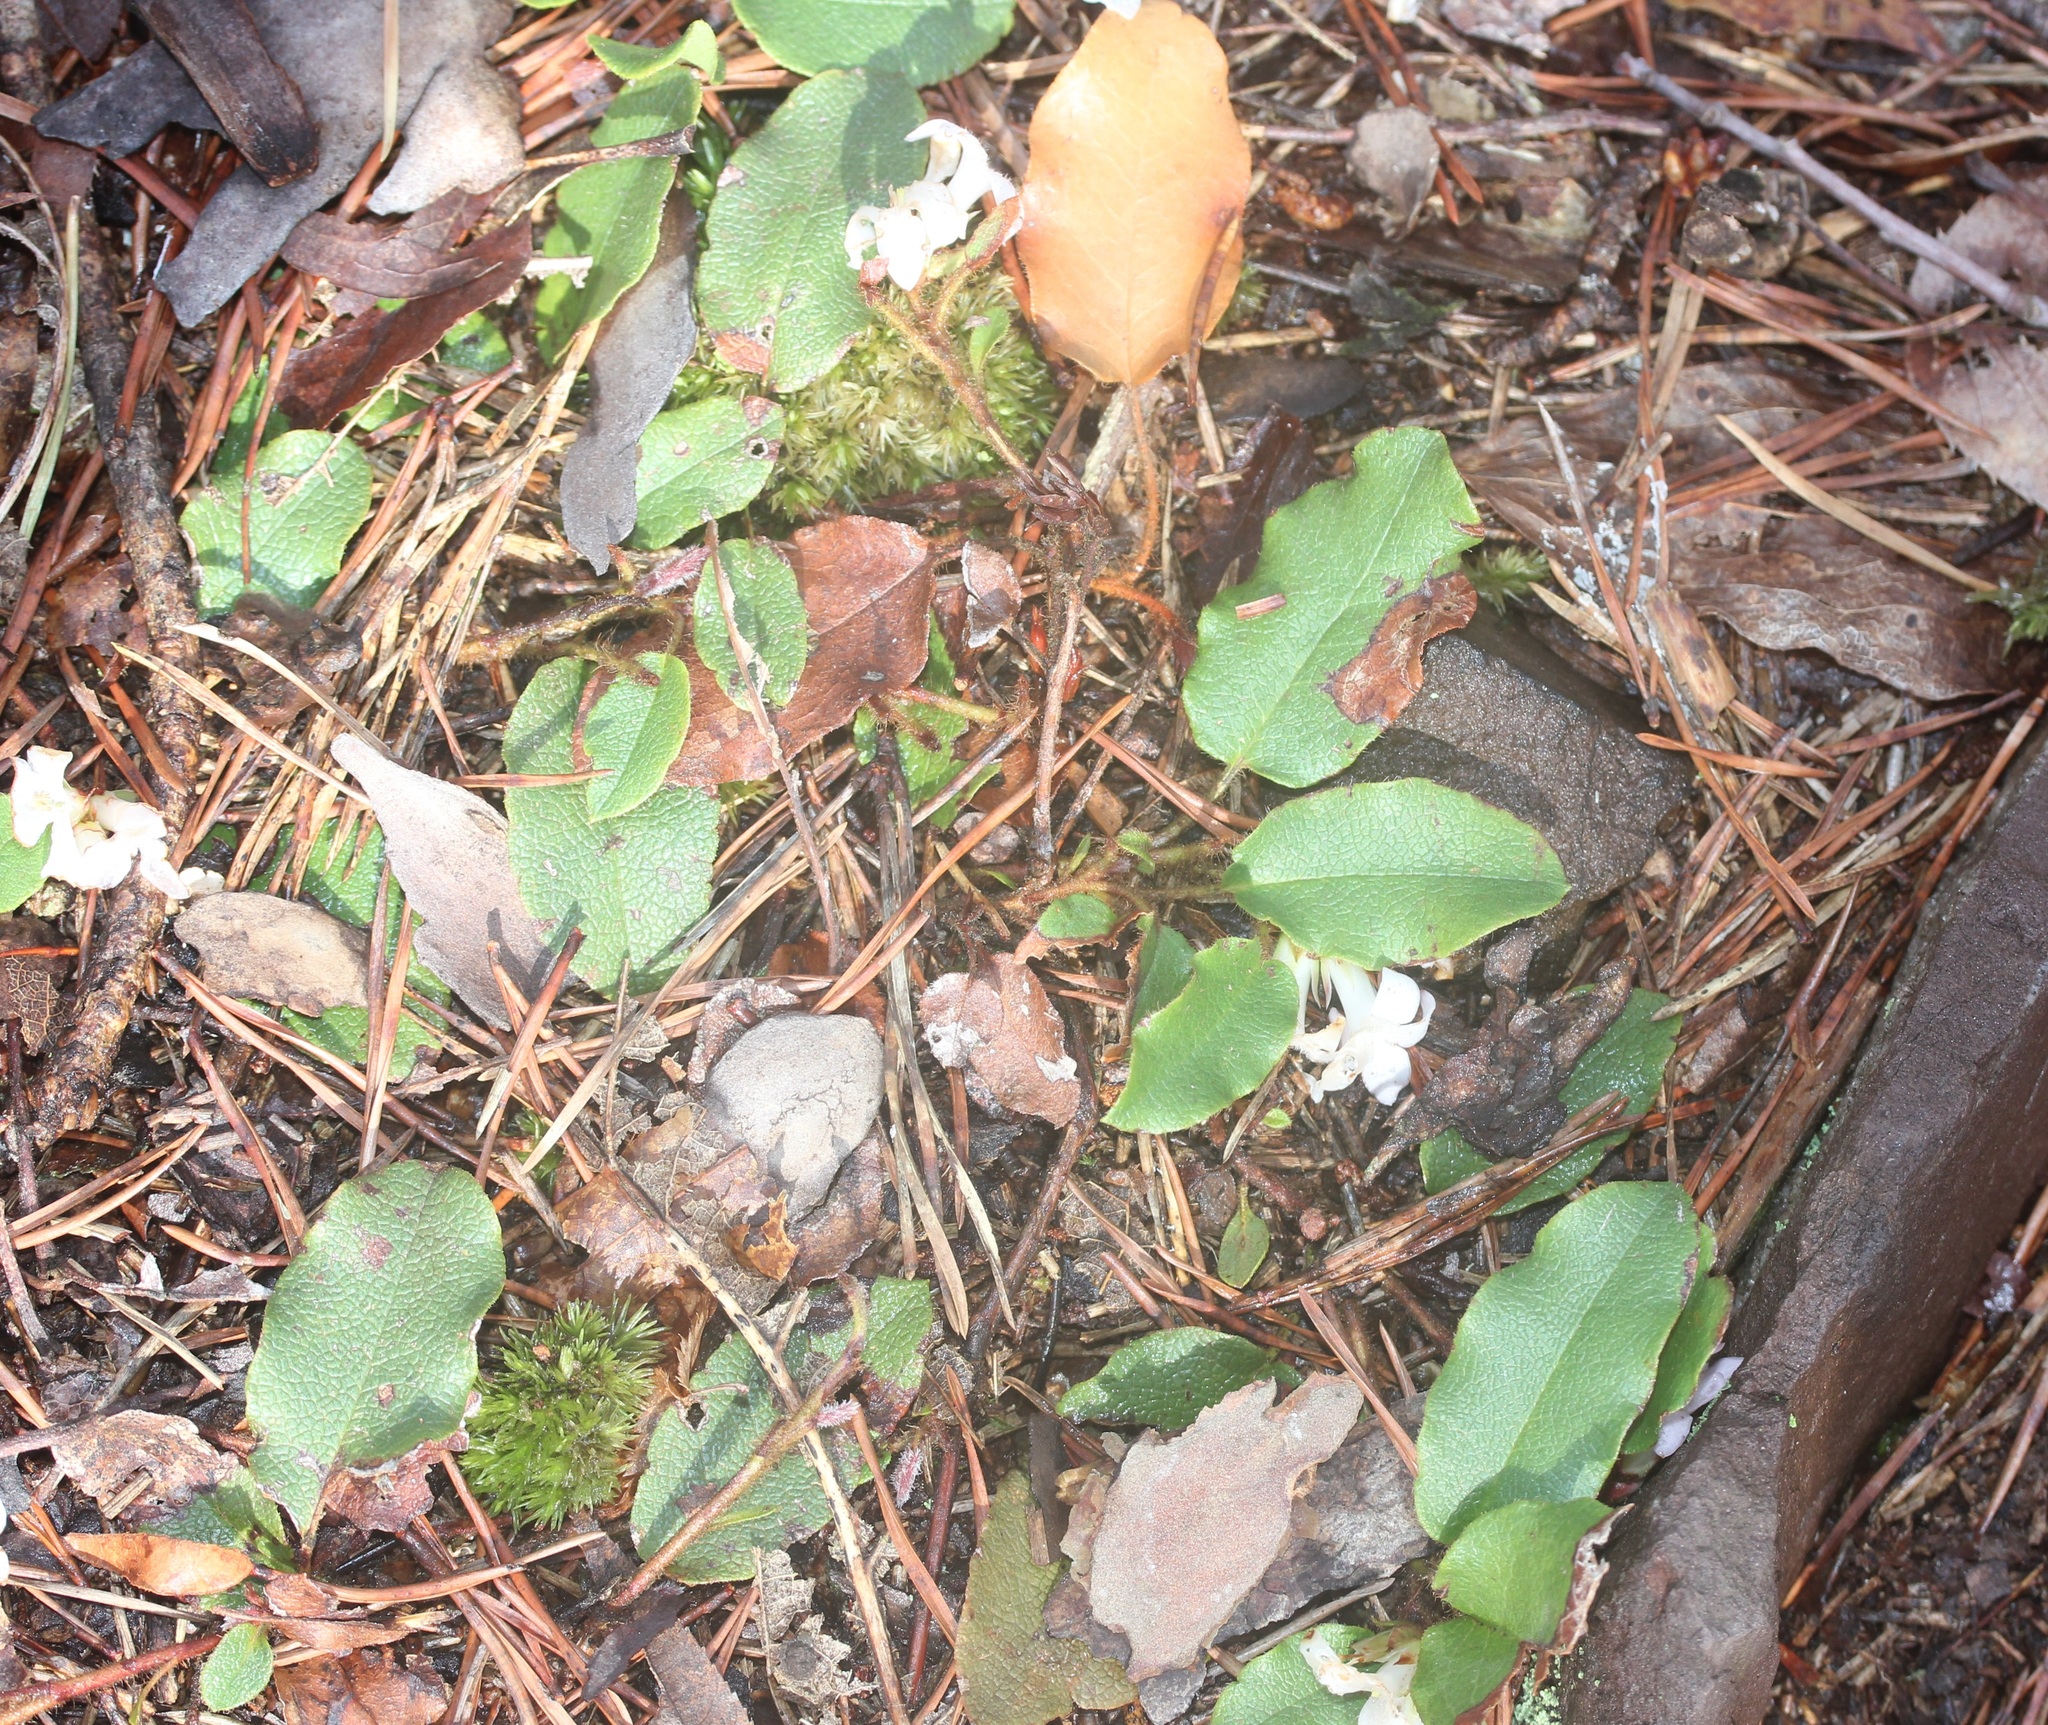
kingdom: Plantae
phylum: Tracheophyta
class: Magnoliopsida
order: Ericales
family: Ericaceae
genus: Epigaea
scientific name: Epigaea repens
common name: Gravelroot
